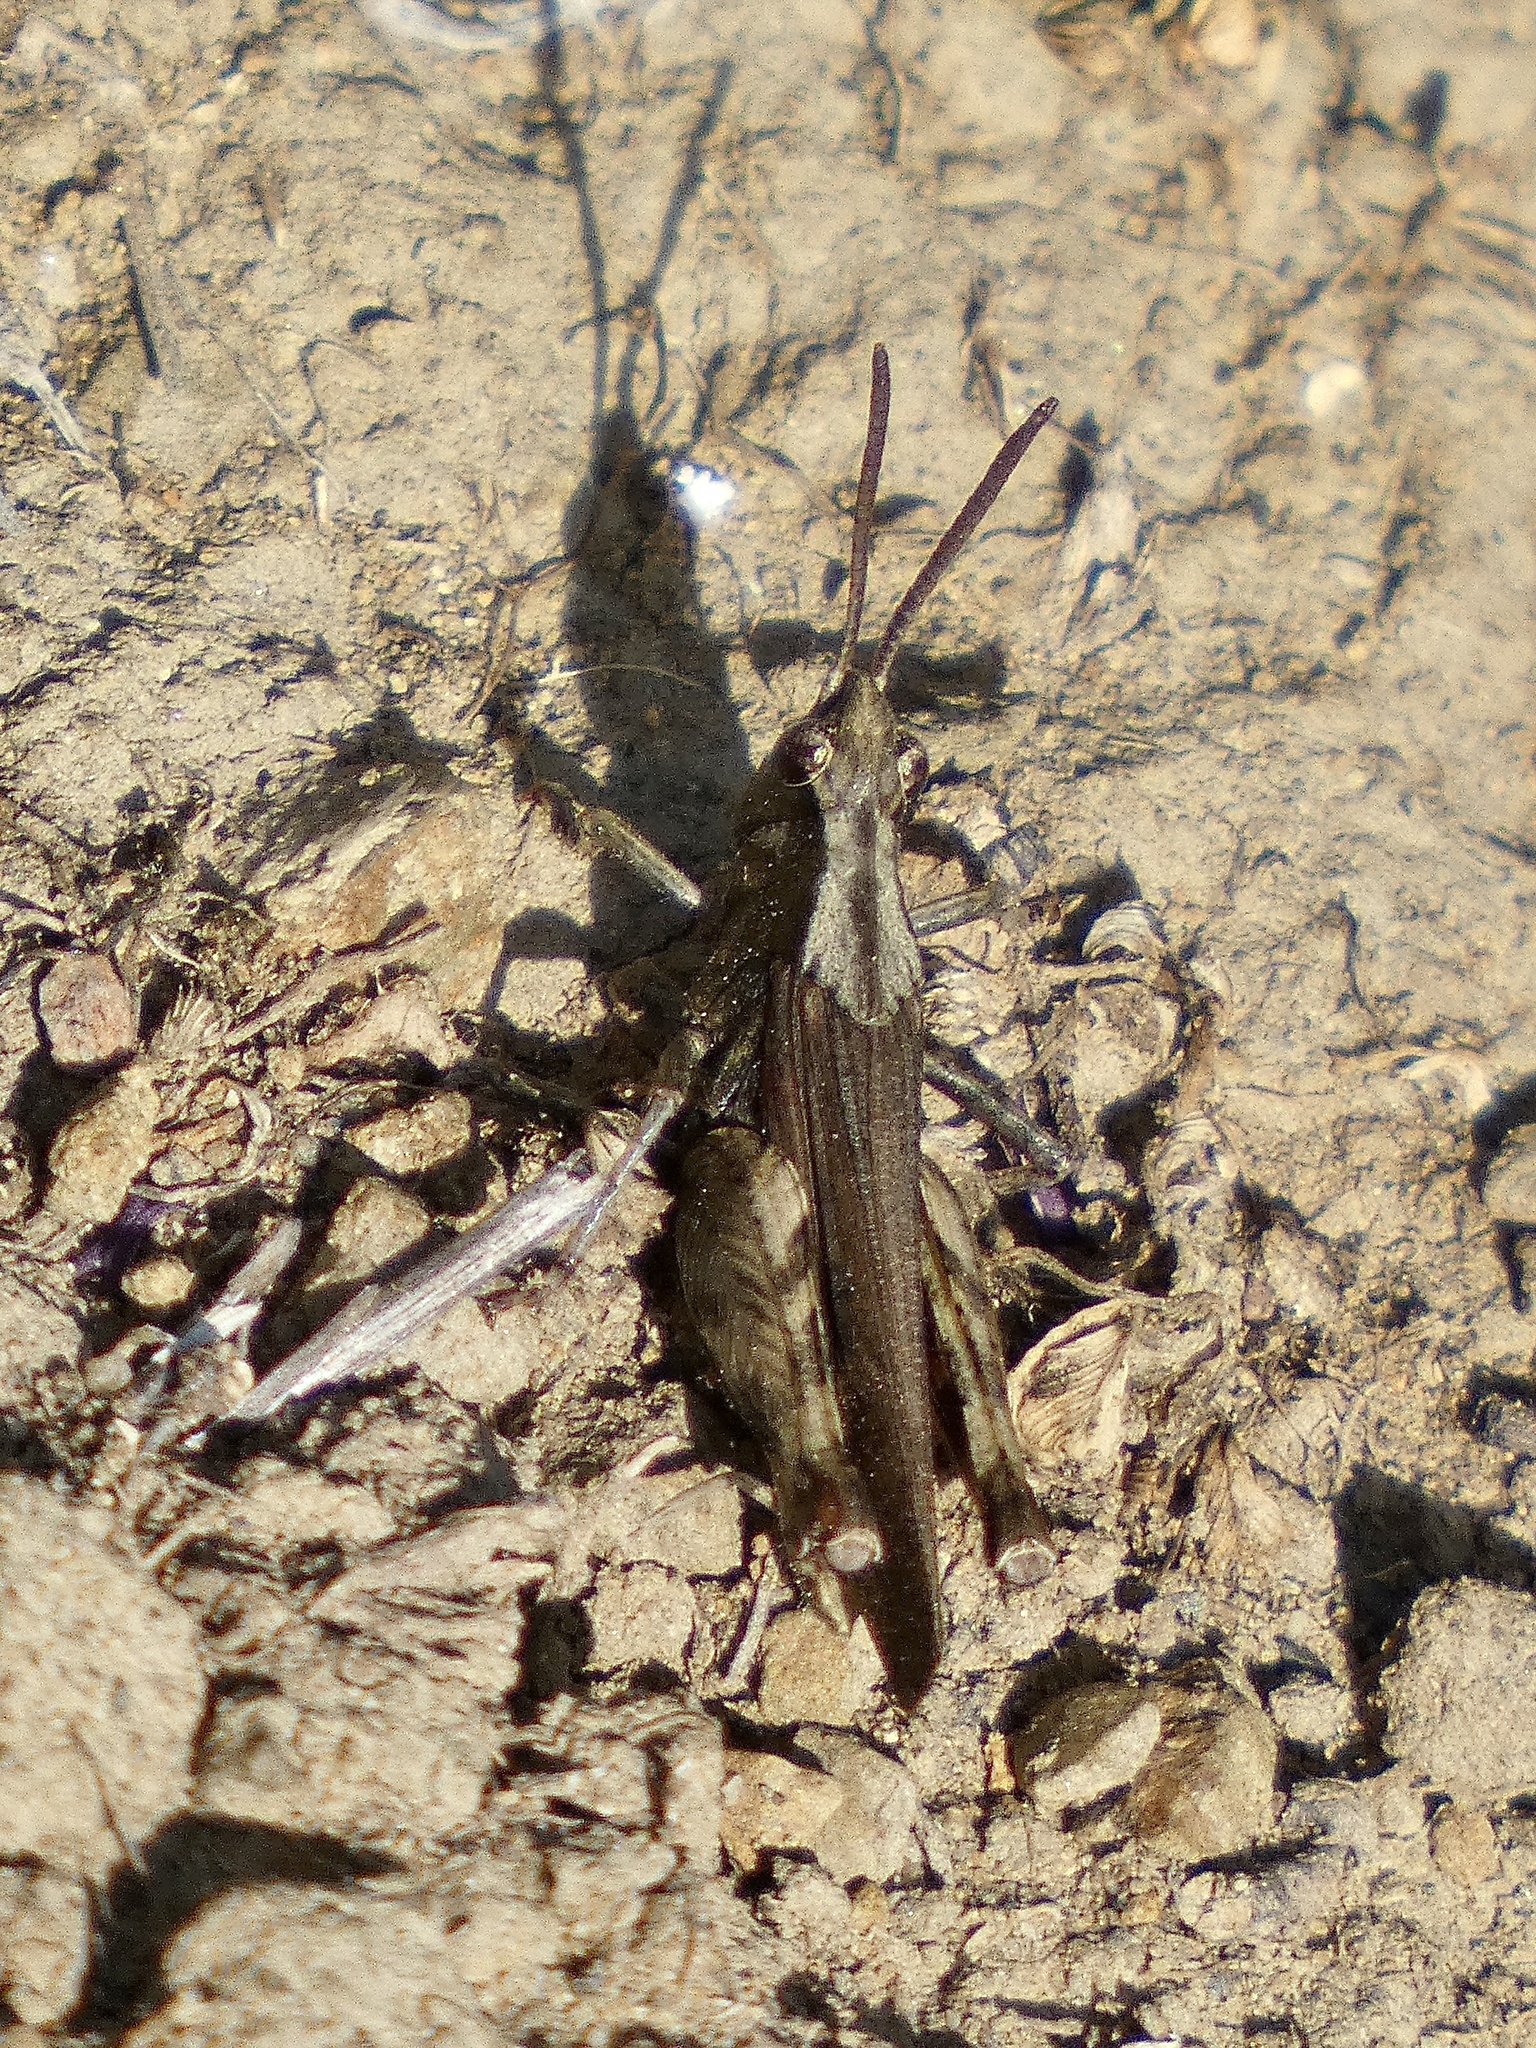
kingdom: Animalia
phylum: Arthropoda
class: Insecta
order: Orthoptera
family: Acrididae
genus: Chimarocephala
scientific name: Chimarocephala pacifica
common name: Painted meadow grasshopper
